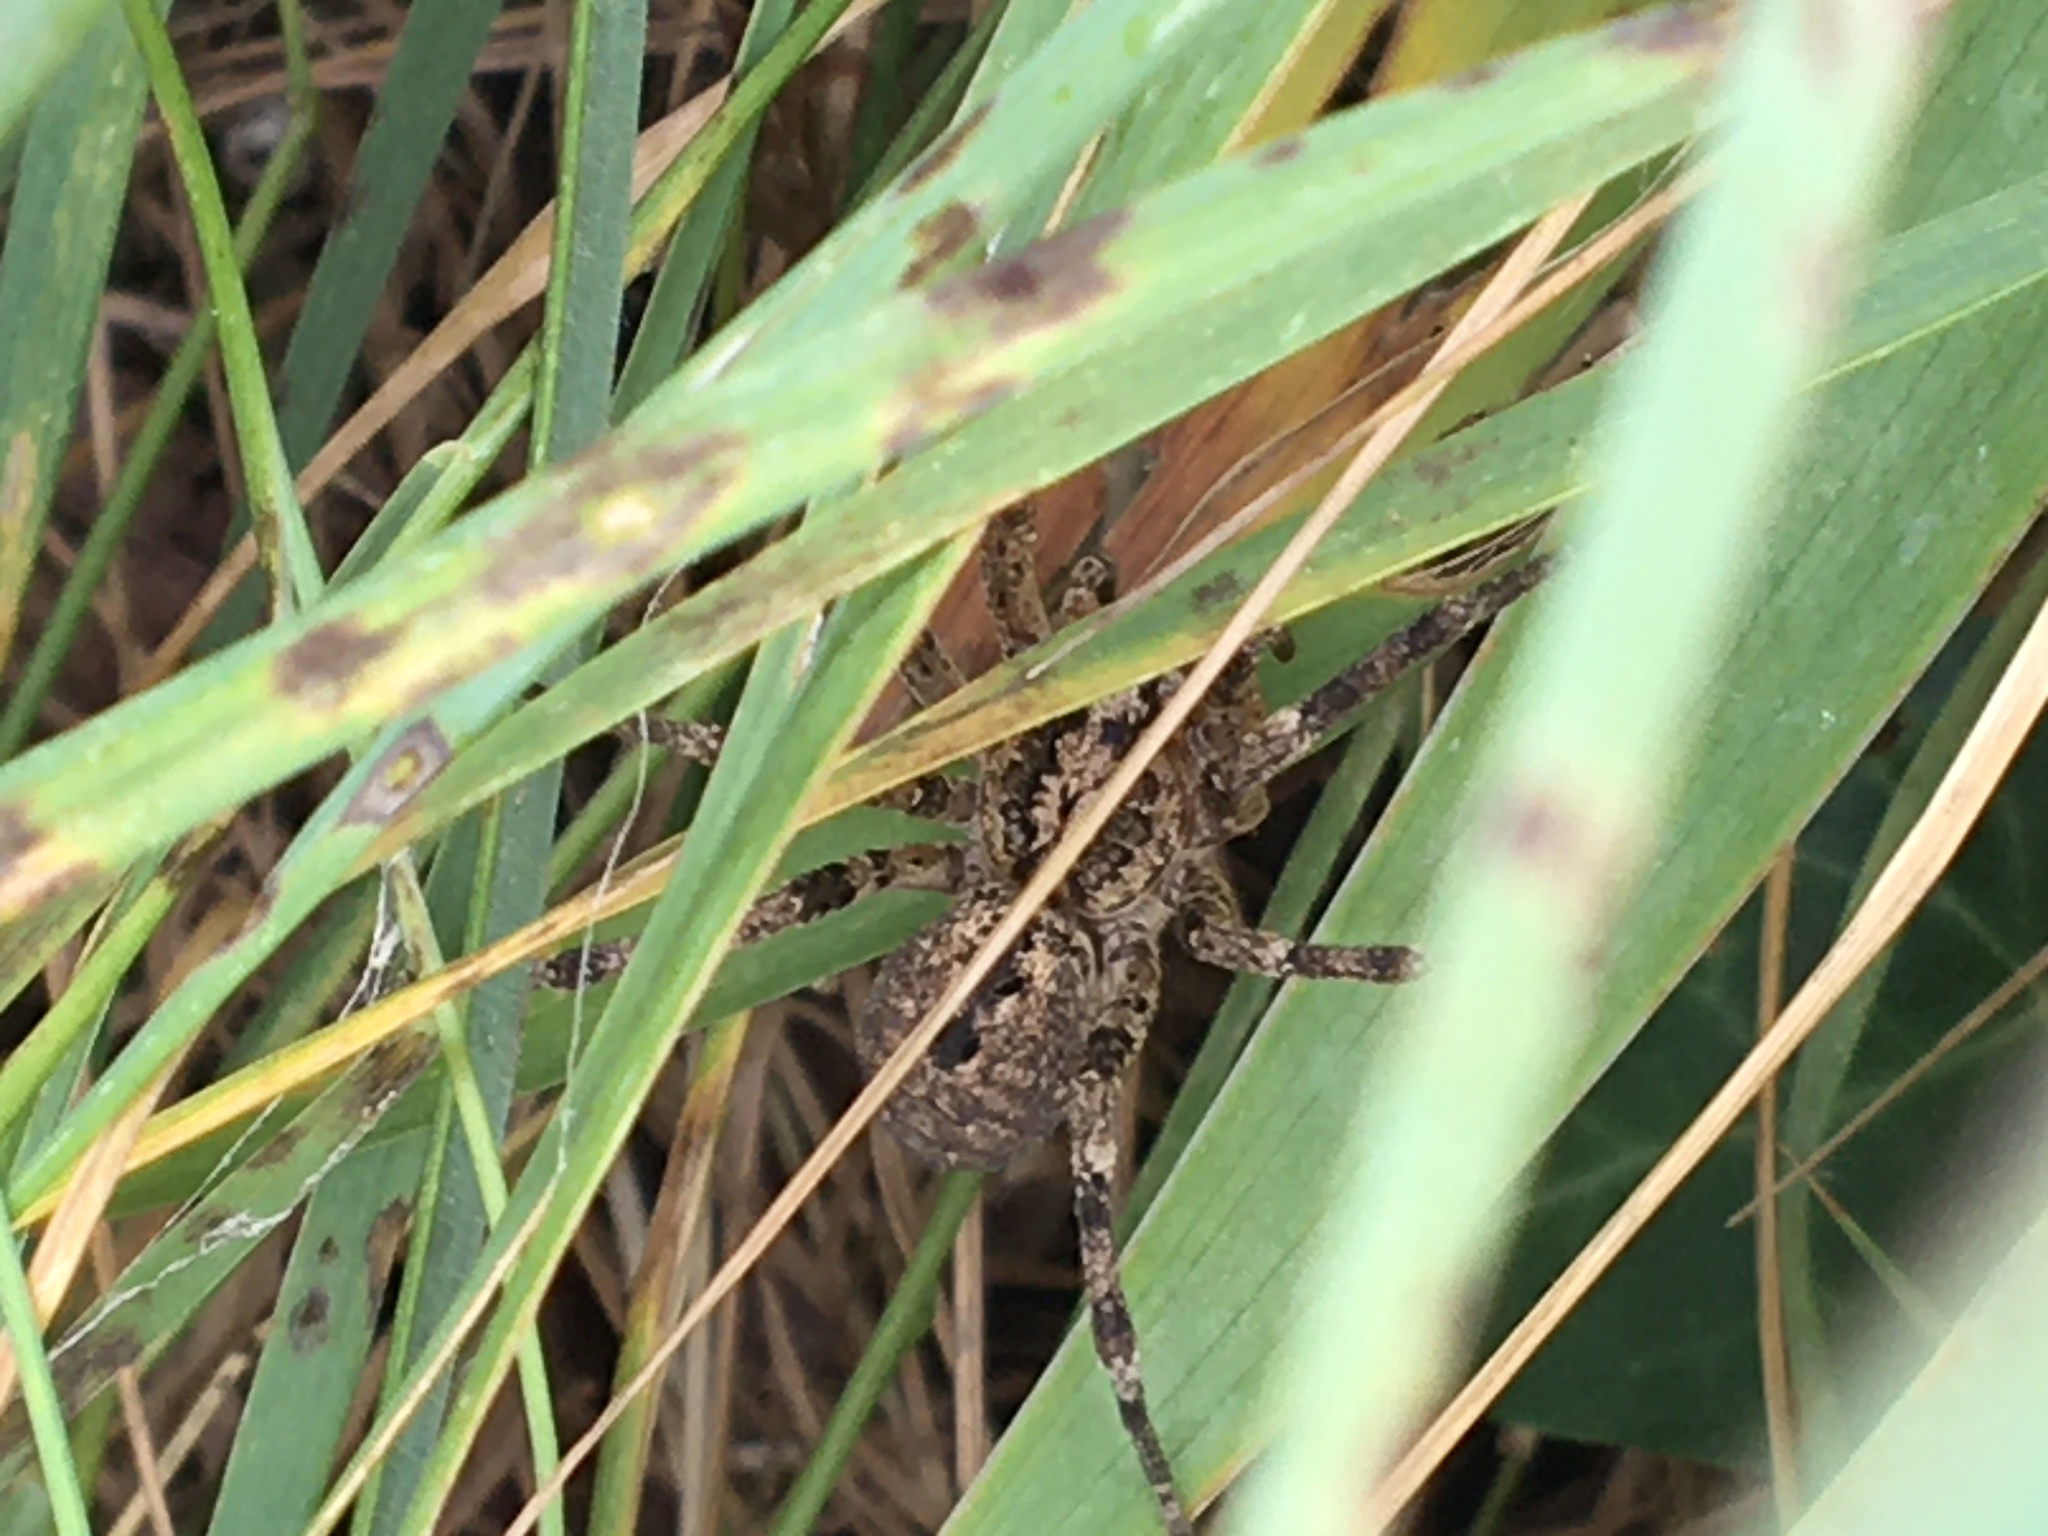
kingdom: Animalia
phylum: Arthropoda
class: Arachnida
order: Araneae
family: Zoropsidae
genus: Zoropsis
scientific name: Zoropsis spinimana
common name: Zoropsid spider
